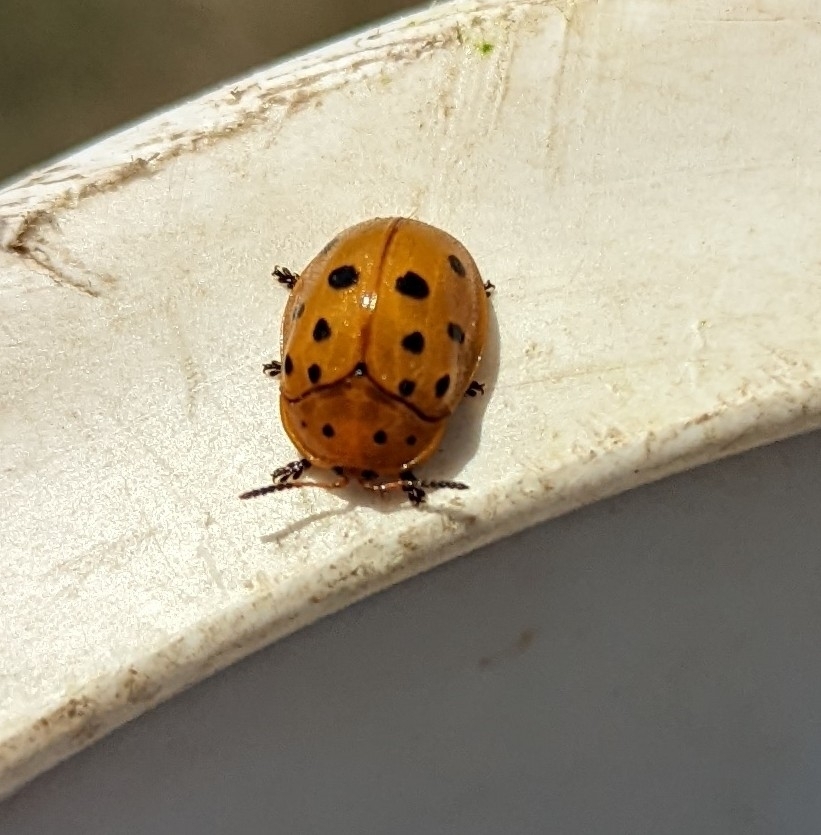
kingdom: Animalia
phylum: Arthropoda
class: Insecta
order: Coleoptera
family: Chrysomelidae
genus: Chelymorpha
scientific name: Chelymorpha cassidea
